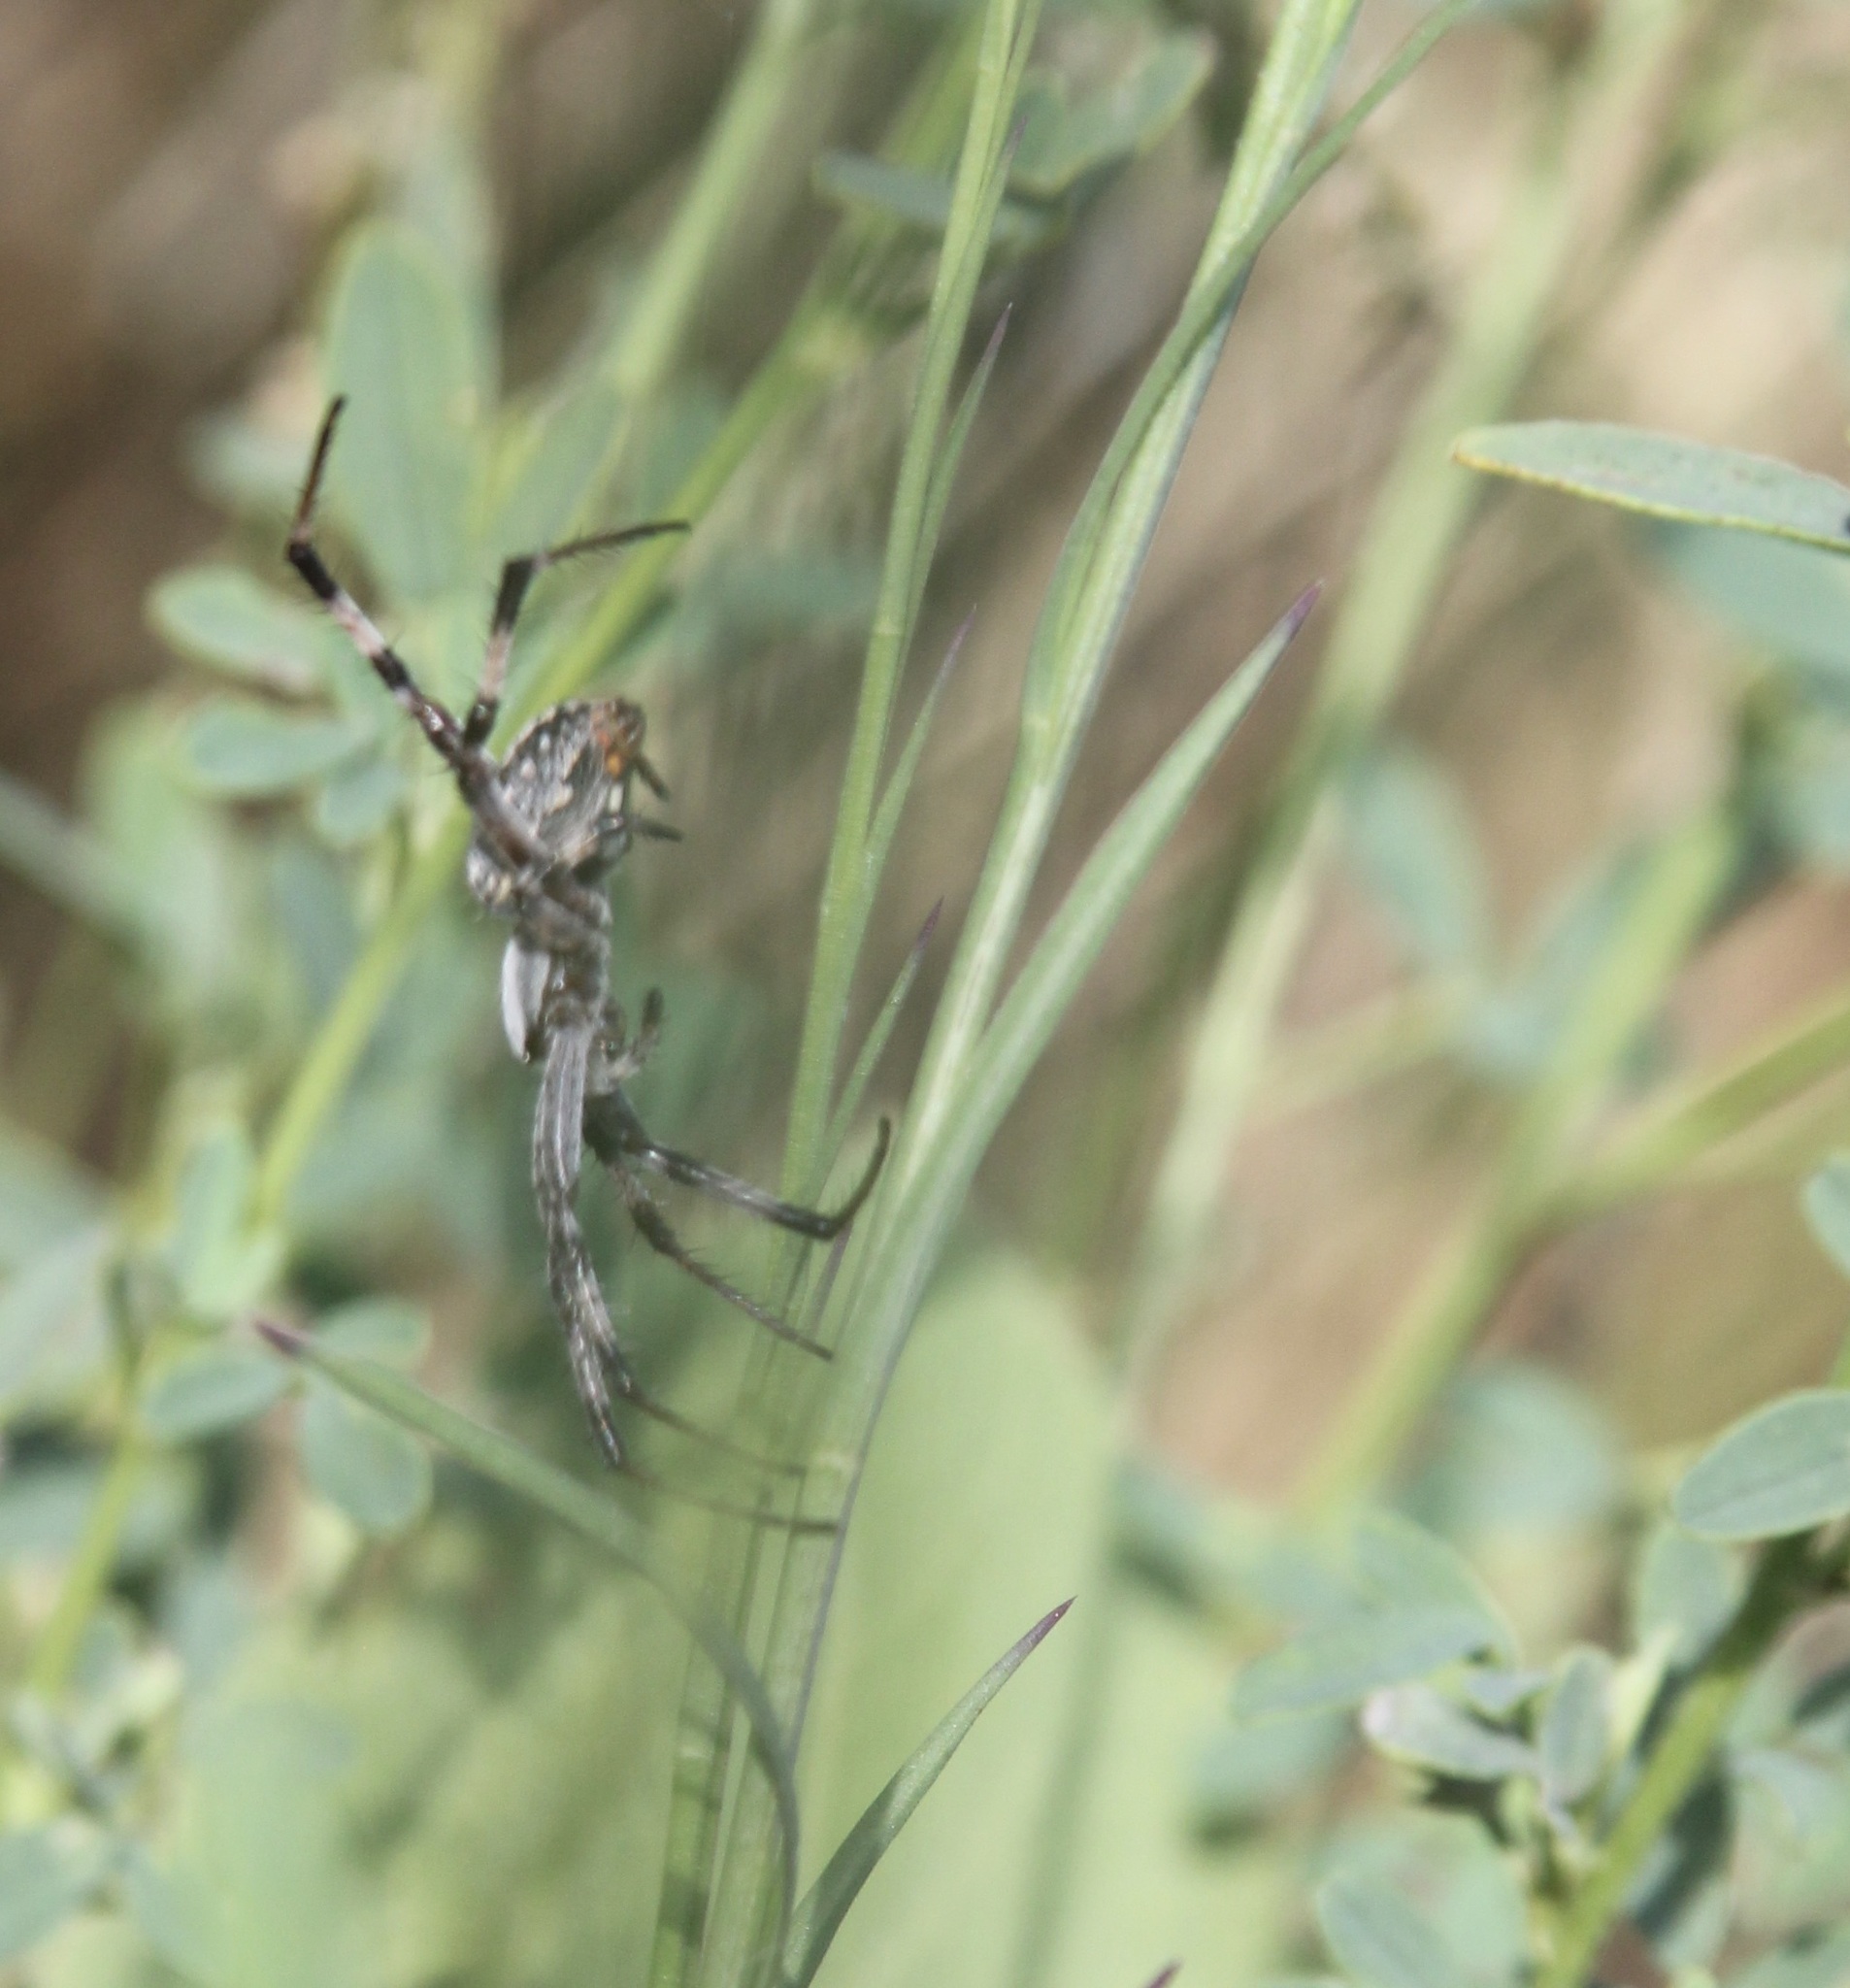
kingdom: Animalia
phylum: Arthropoda
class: Arachnida
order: Araneae
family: Araneidae
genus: Neoscona
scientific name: Neoscona oaxacensis
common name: Orb weavers
